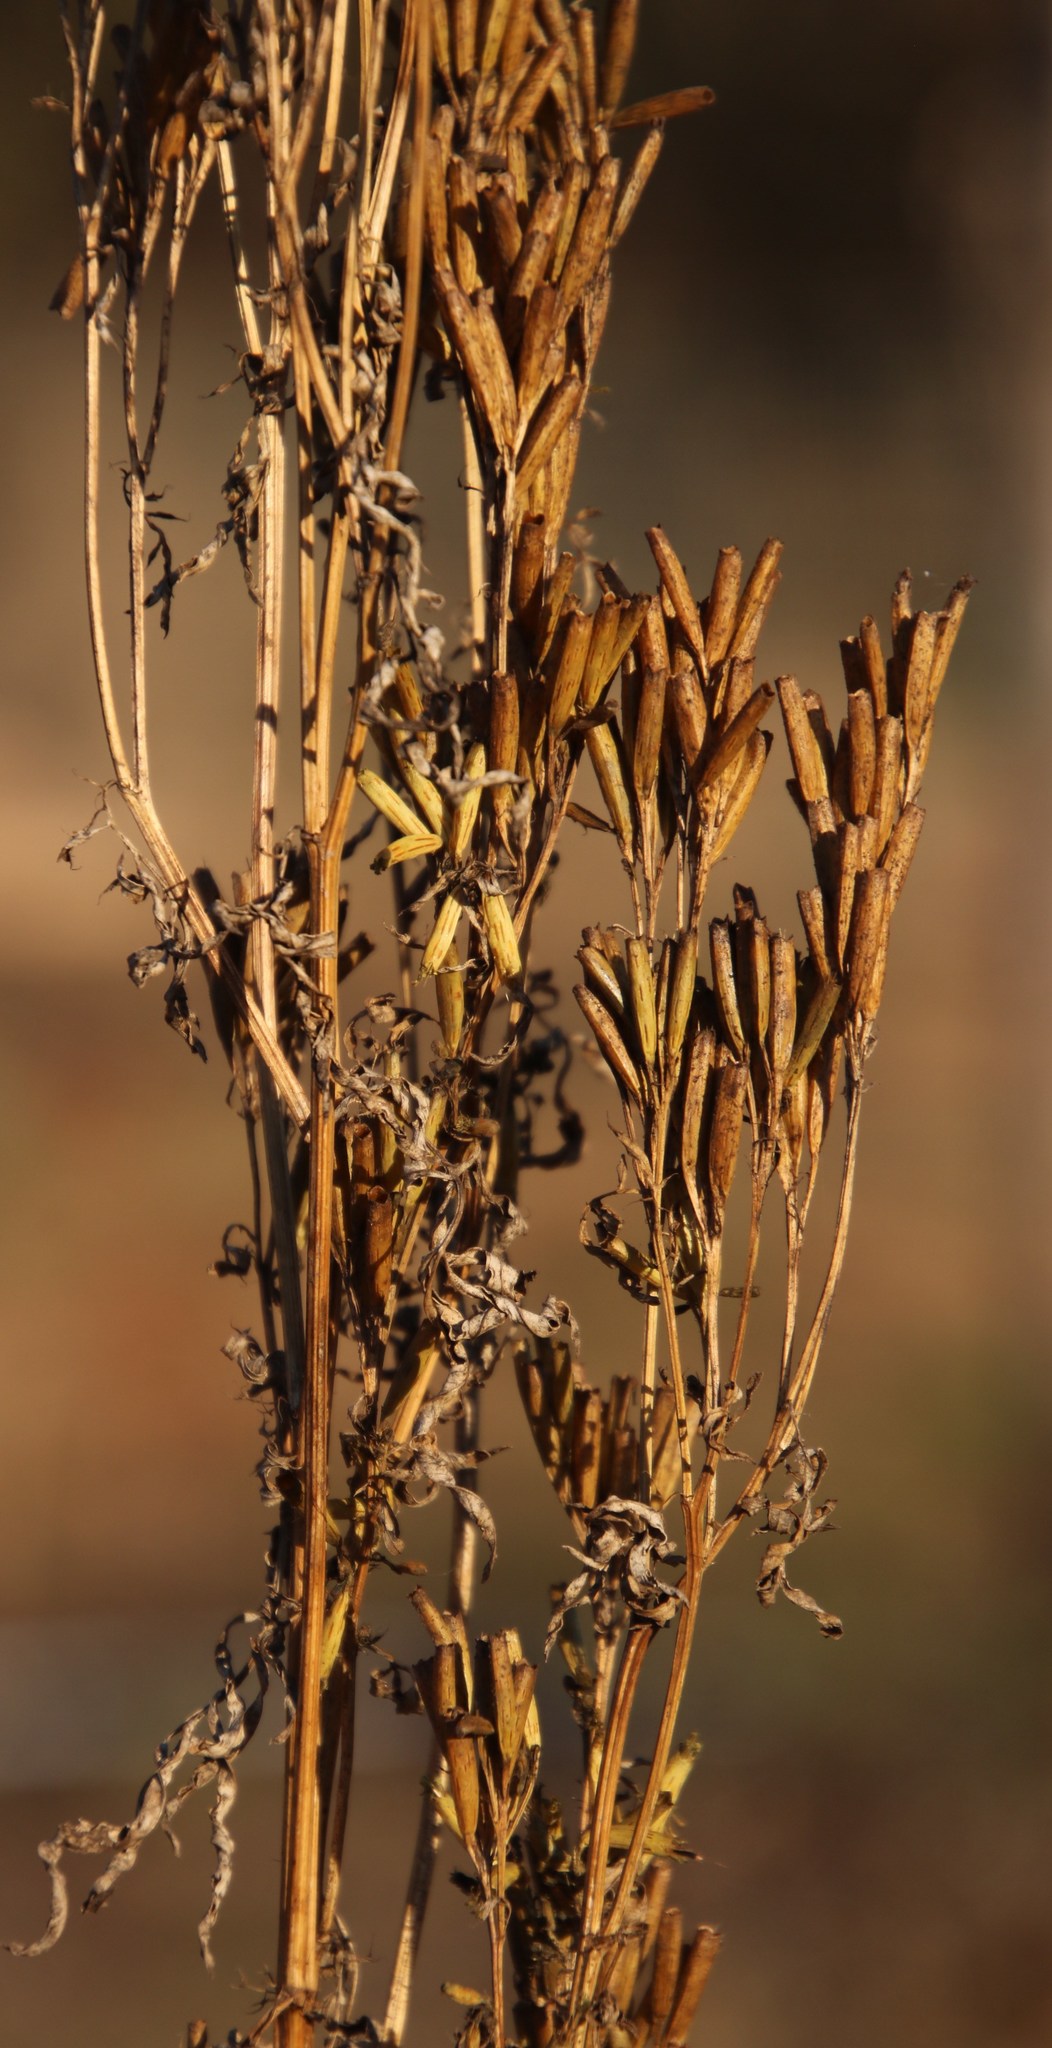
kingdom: Plantae
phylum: Tracheophyta
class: Magnoliopsida
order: Asterales
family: Asteraceae
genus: Tagetes
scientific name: Tagetes minuta
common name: Muster john henry
